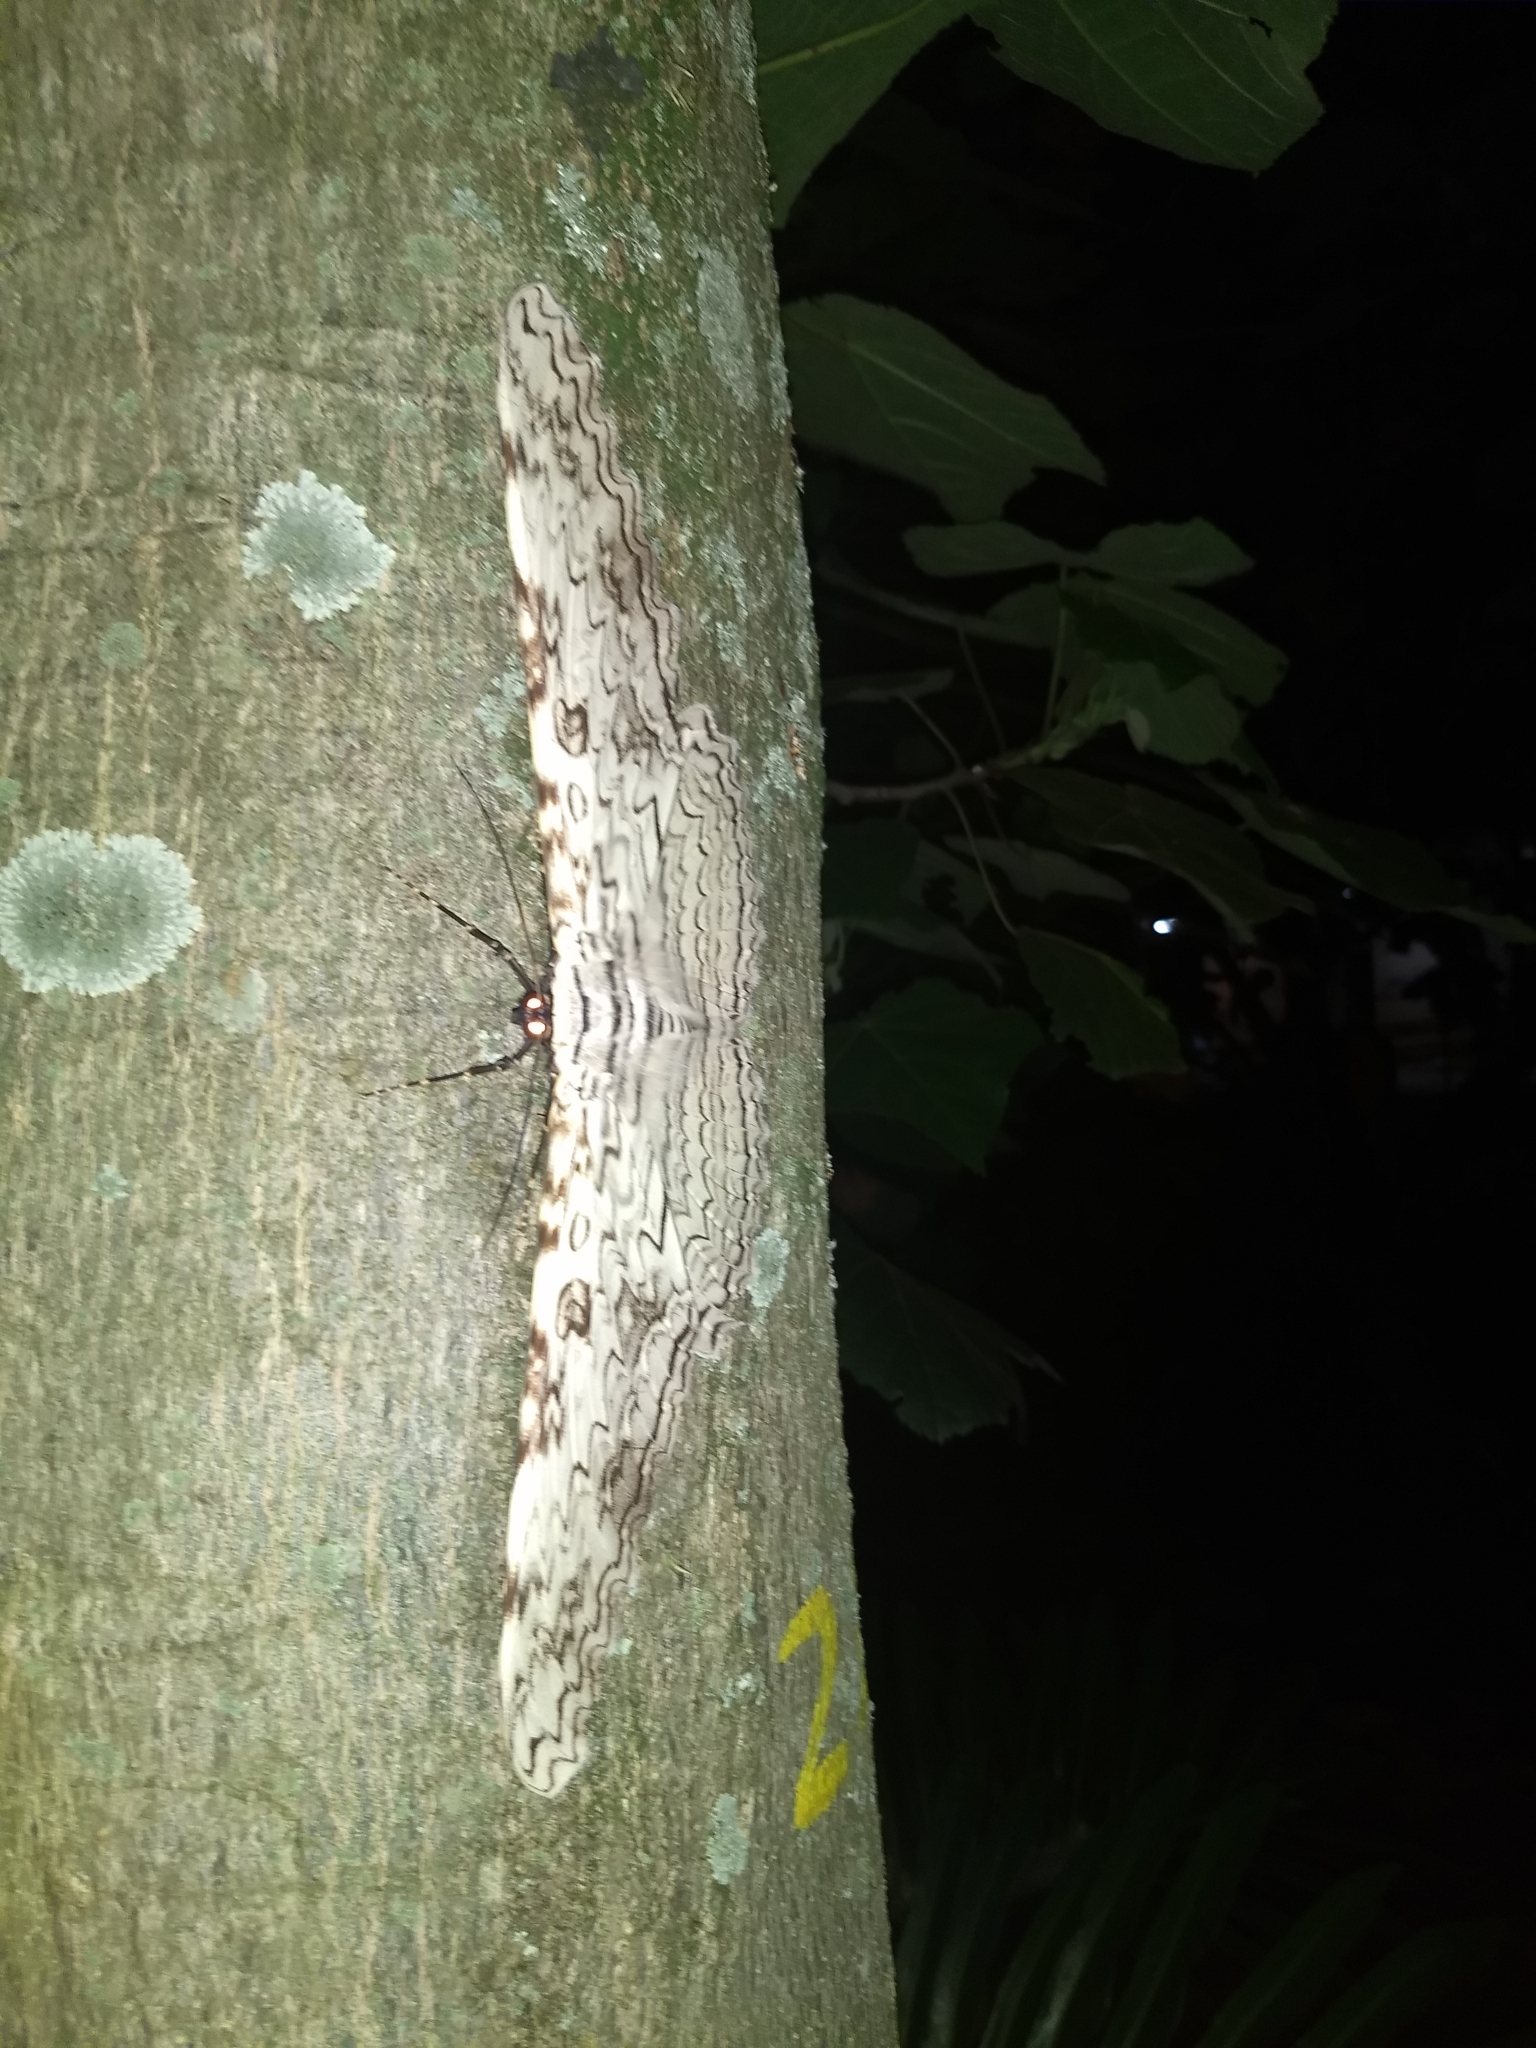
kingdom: Animalia
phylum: Arthropoda
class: Insecta
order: Lepidoptera
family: Erebidae
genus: Thysania
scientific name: Thysania agrippina
